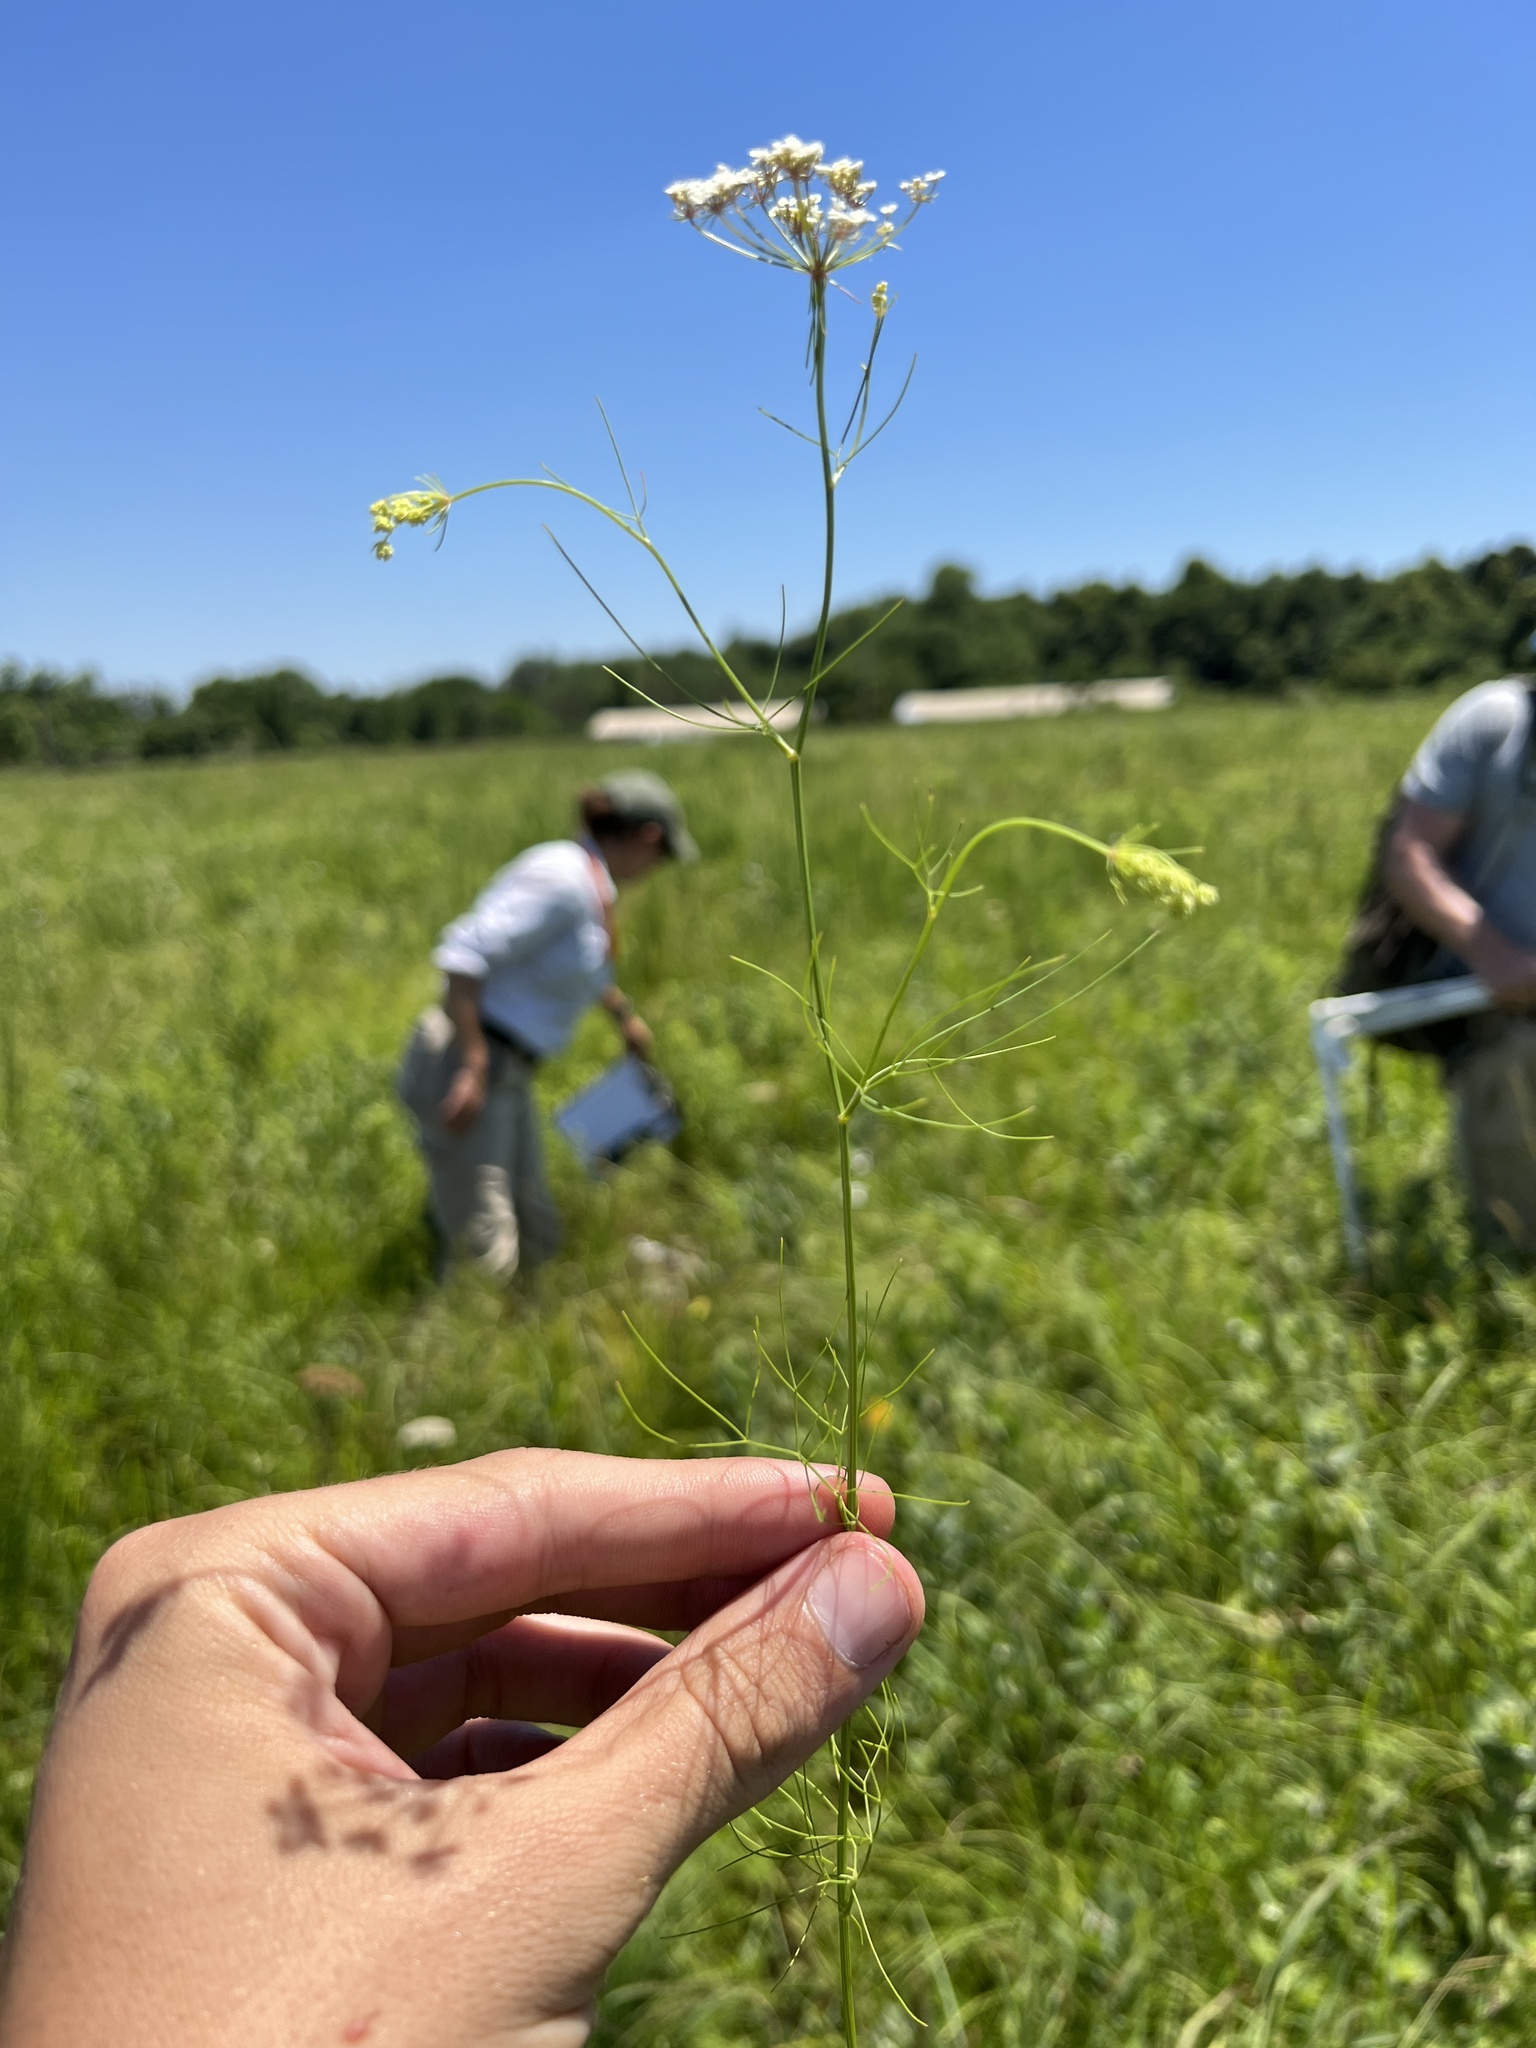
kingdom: Plantae
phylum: Tracheophyta
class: Magnoliopsida
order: Apiales
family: Apiaceae
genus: Ptilimnium
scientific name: Ptilimnium nuttallii
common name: Ozark bishop's-weed
